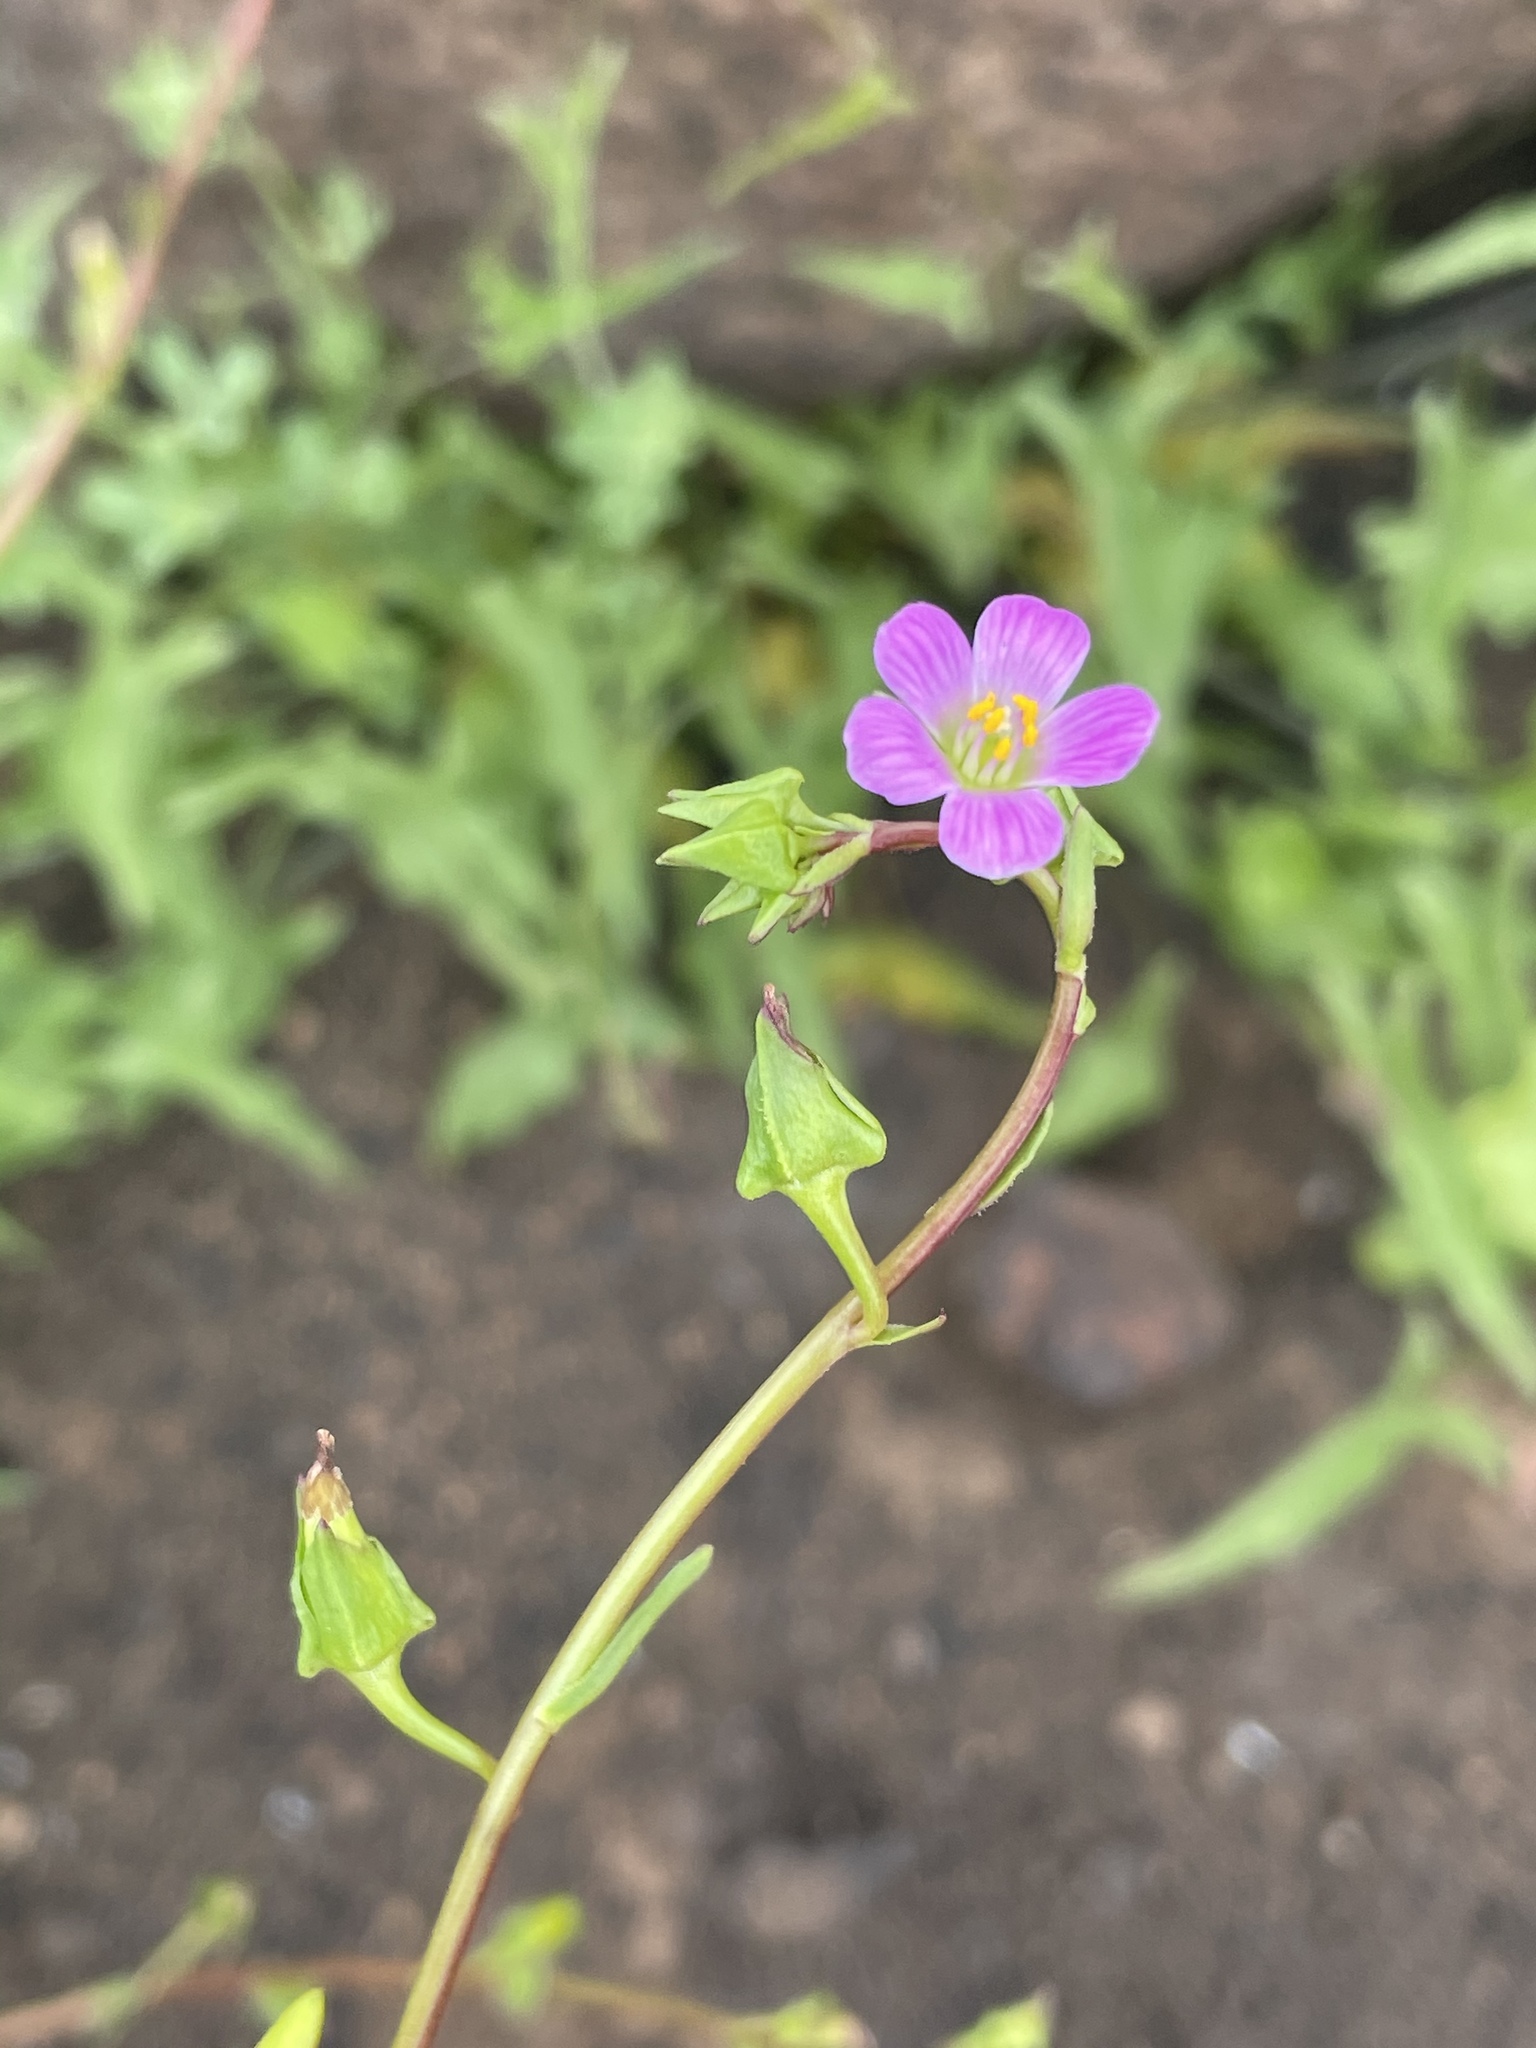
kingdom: Plantae
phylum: Tracheophyta
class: Magnoliopsida
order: Caryophyllales
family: Montiaceae
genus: Calandrinia
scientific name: Calandrinia breweri
